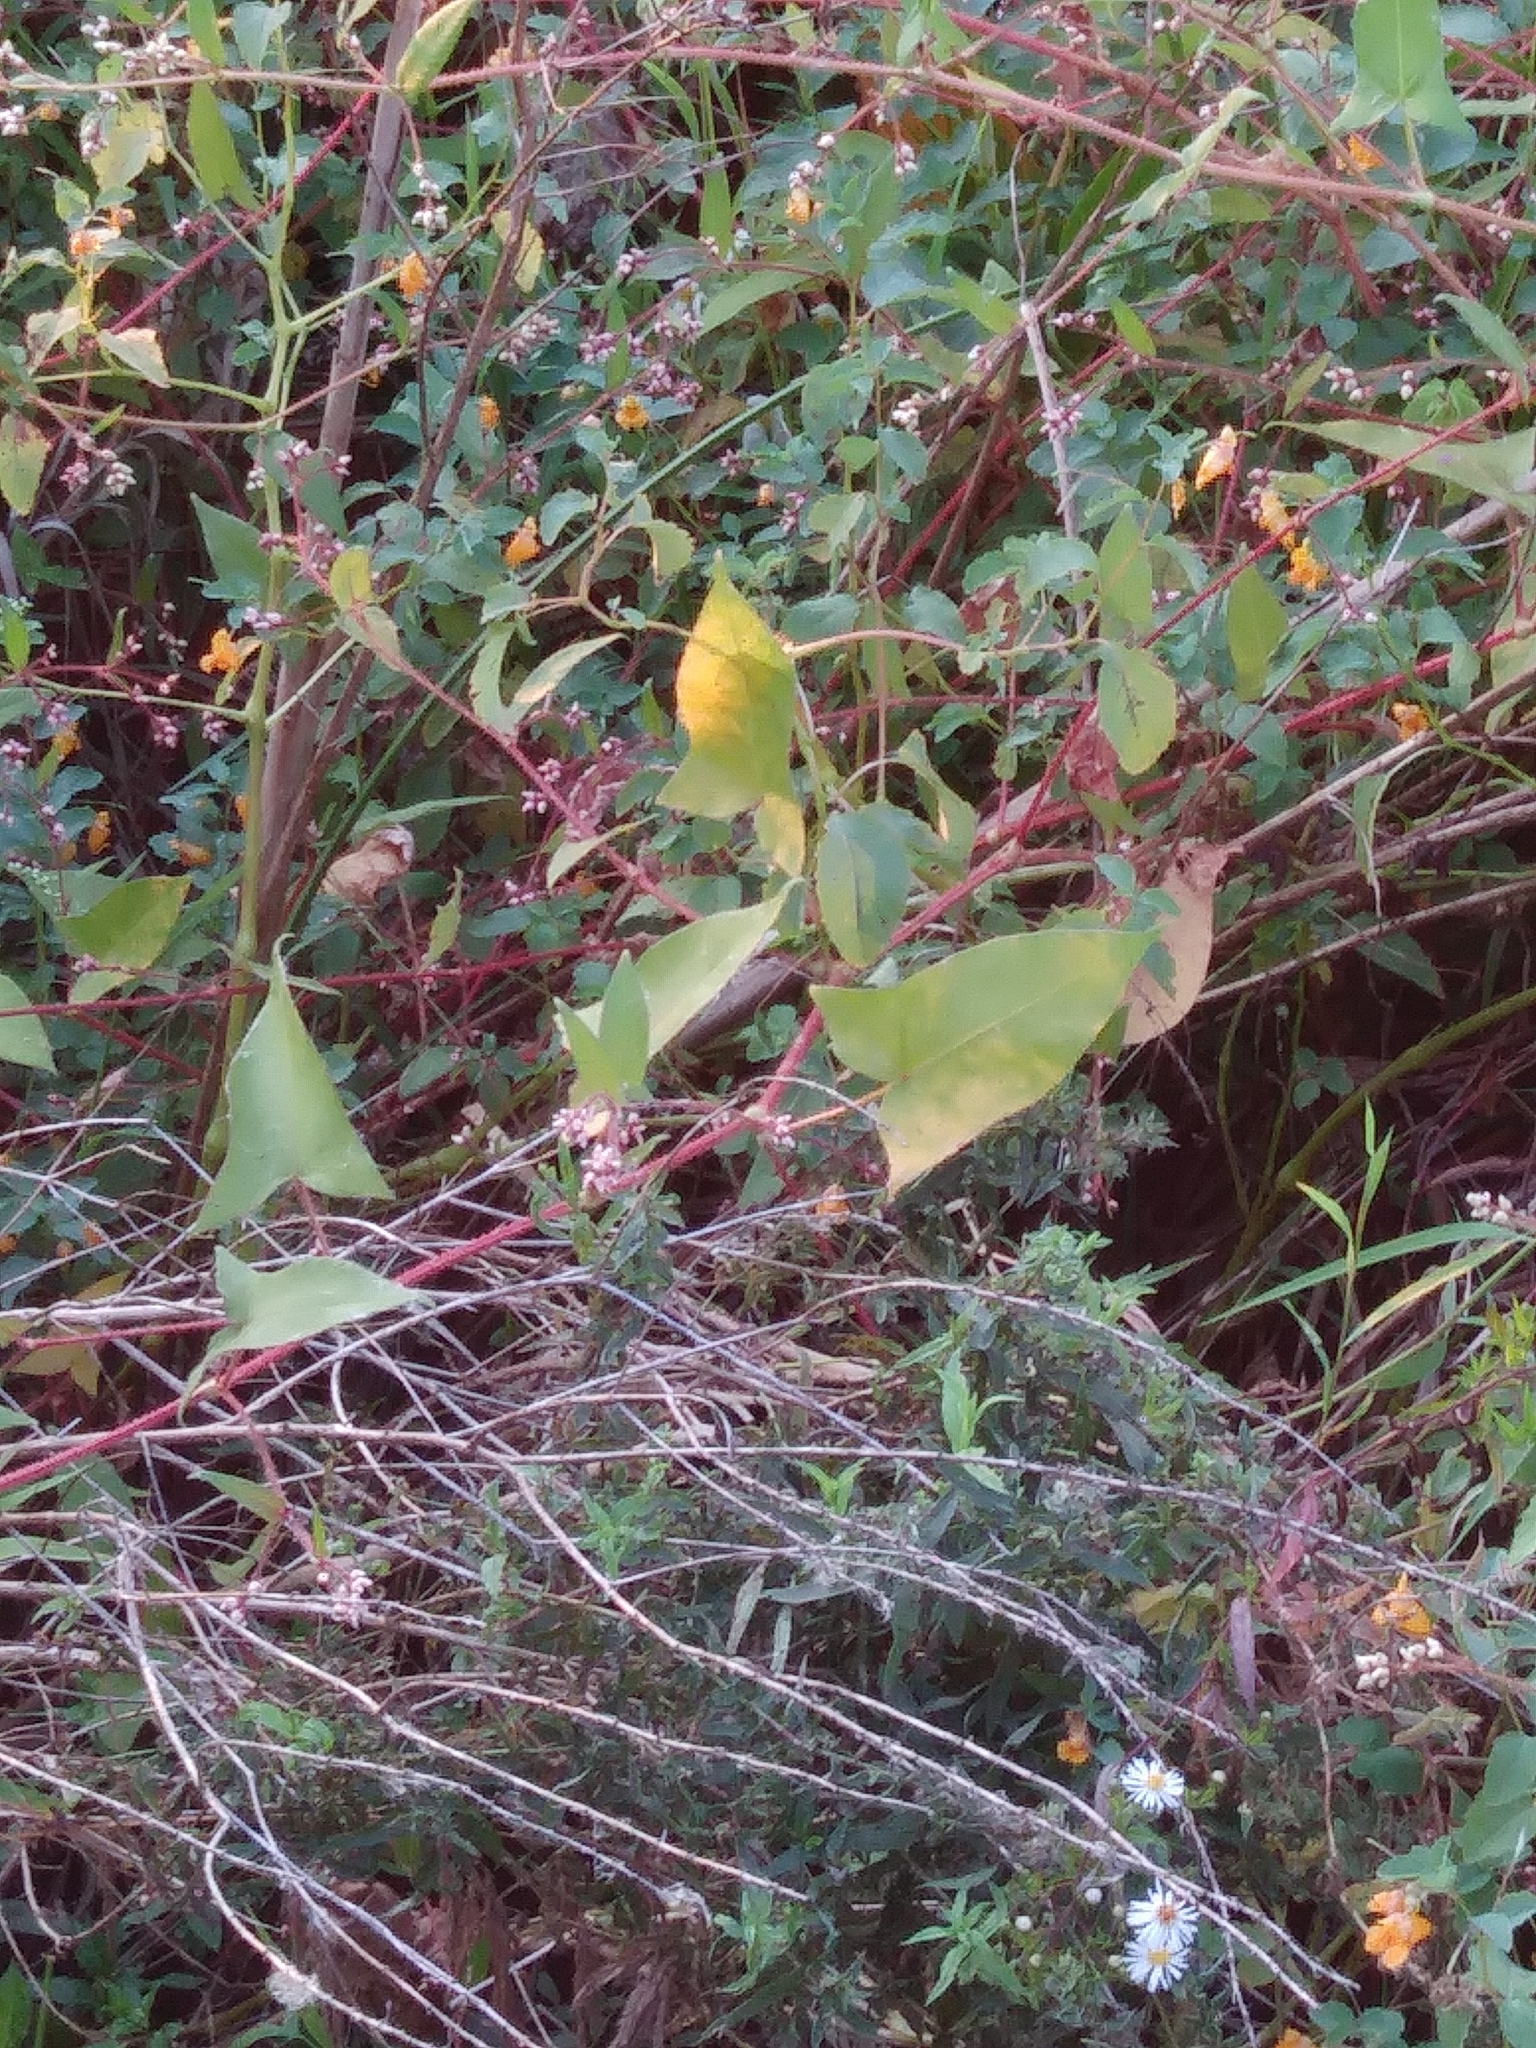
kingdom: Plantae
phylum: Tracheophyta
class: Magnoliopsida
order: Caryophyllales
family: Polygonaceae
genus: Persicaria
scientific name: Persicaria arifolia
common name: Halberd-leaved tear-thumb
